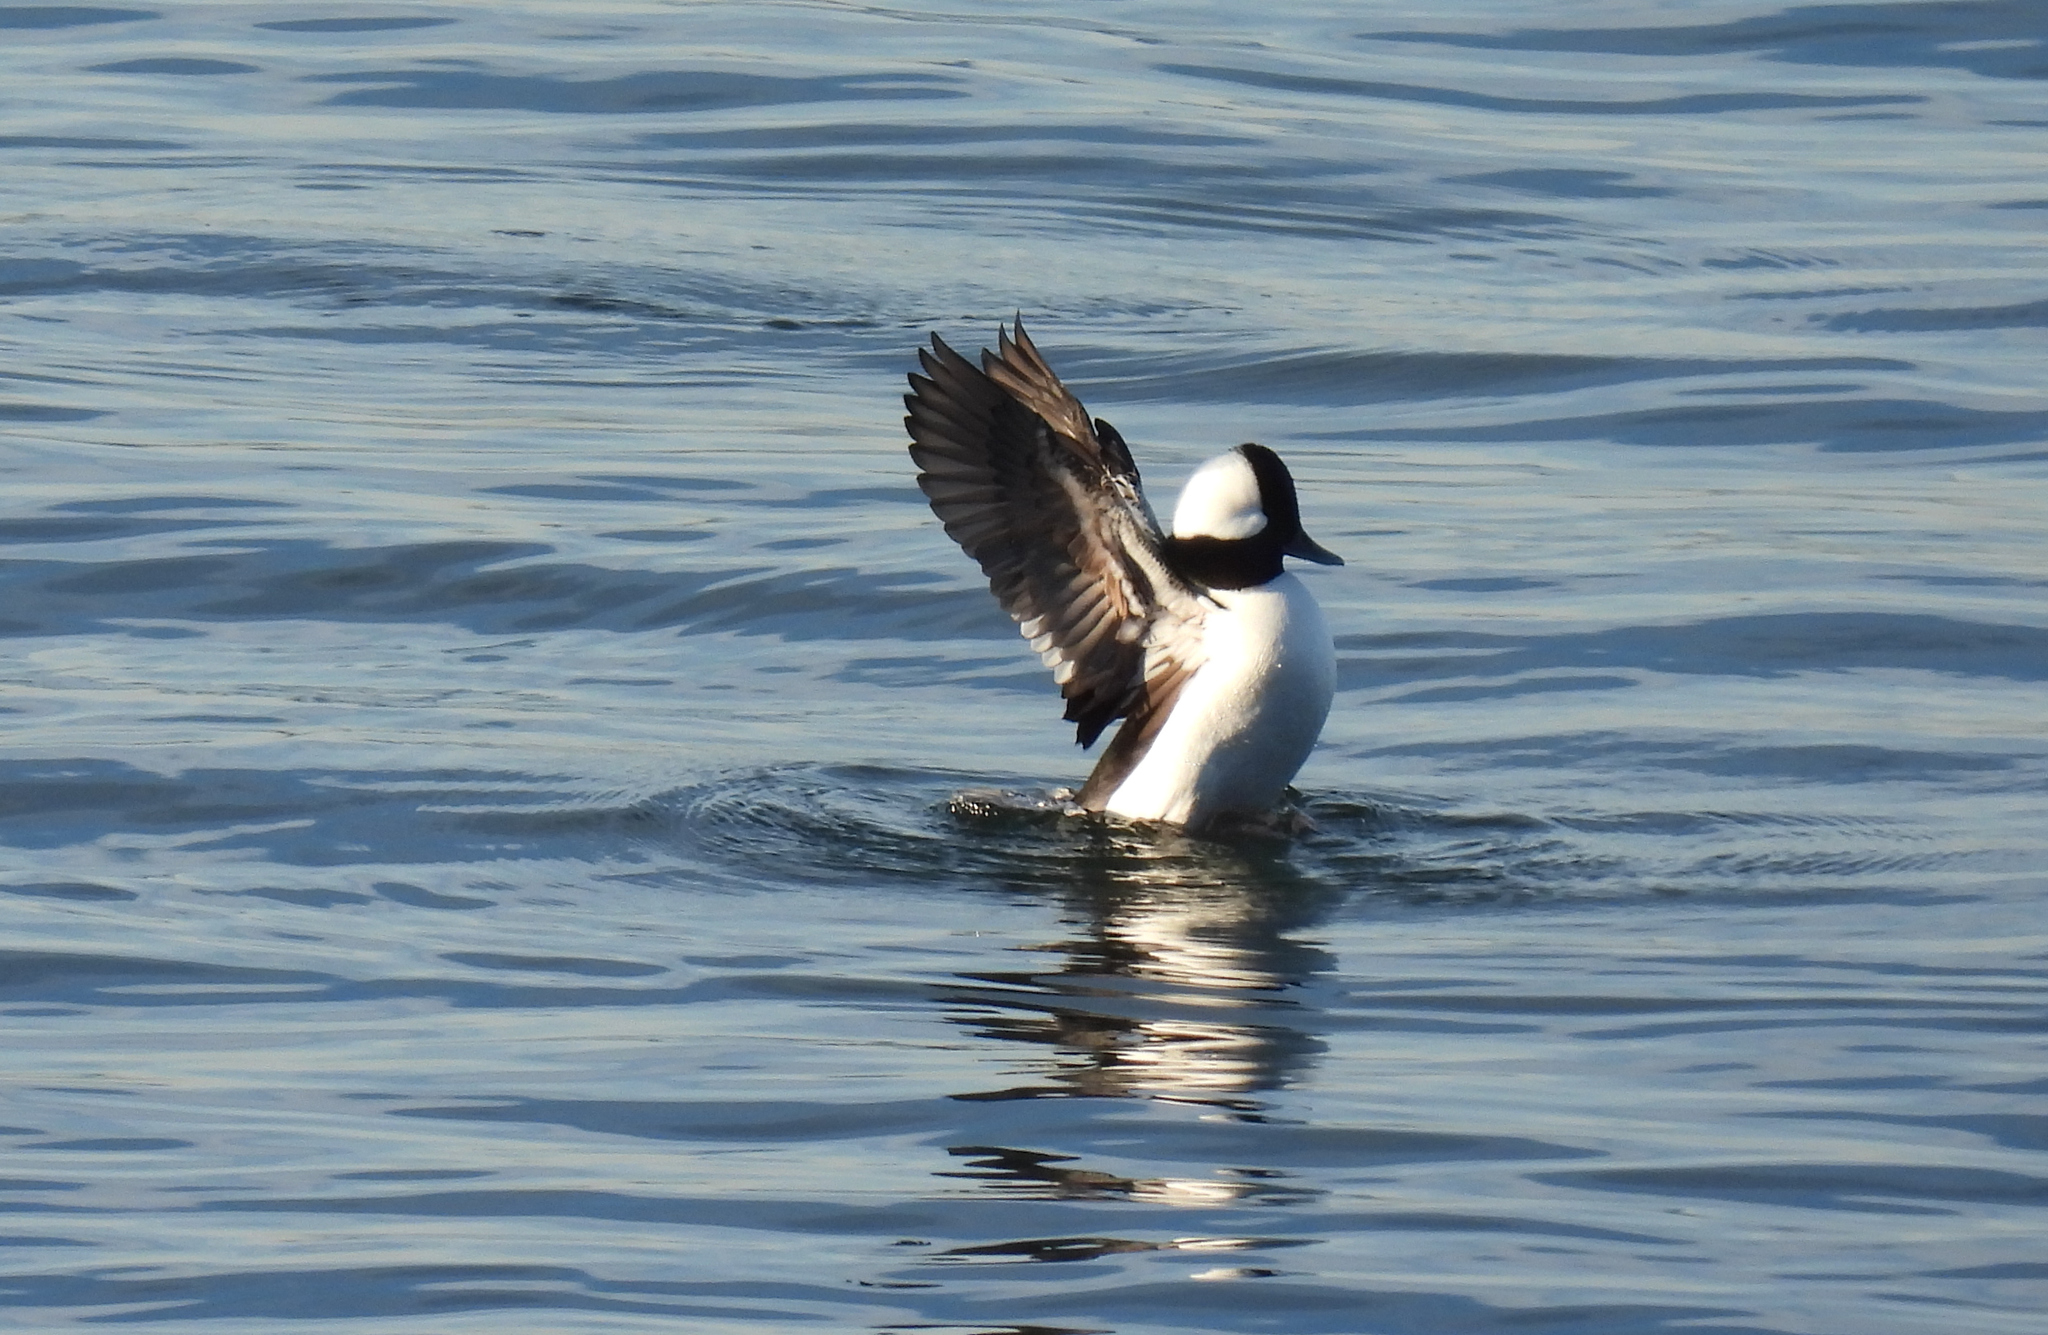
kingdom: Animalia
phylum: Chordata
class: Aves
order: Anseriformes
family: Anatidae
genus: Bucephala
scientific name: Bucephala albeola
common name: Bufflehead
